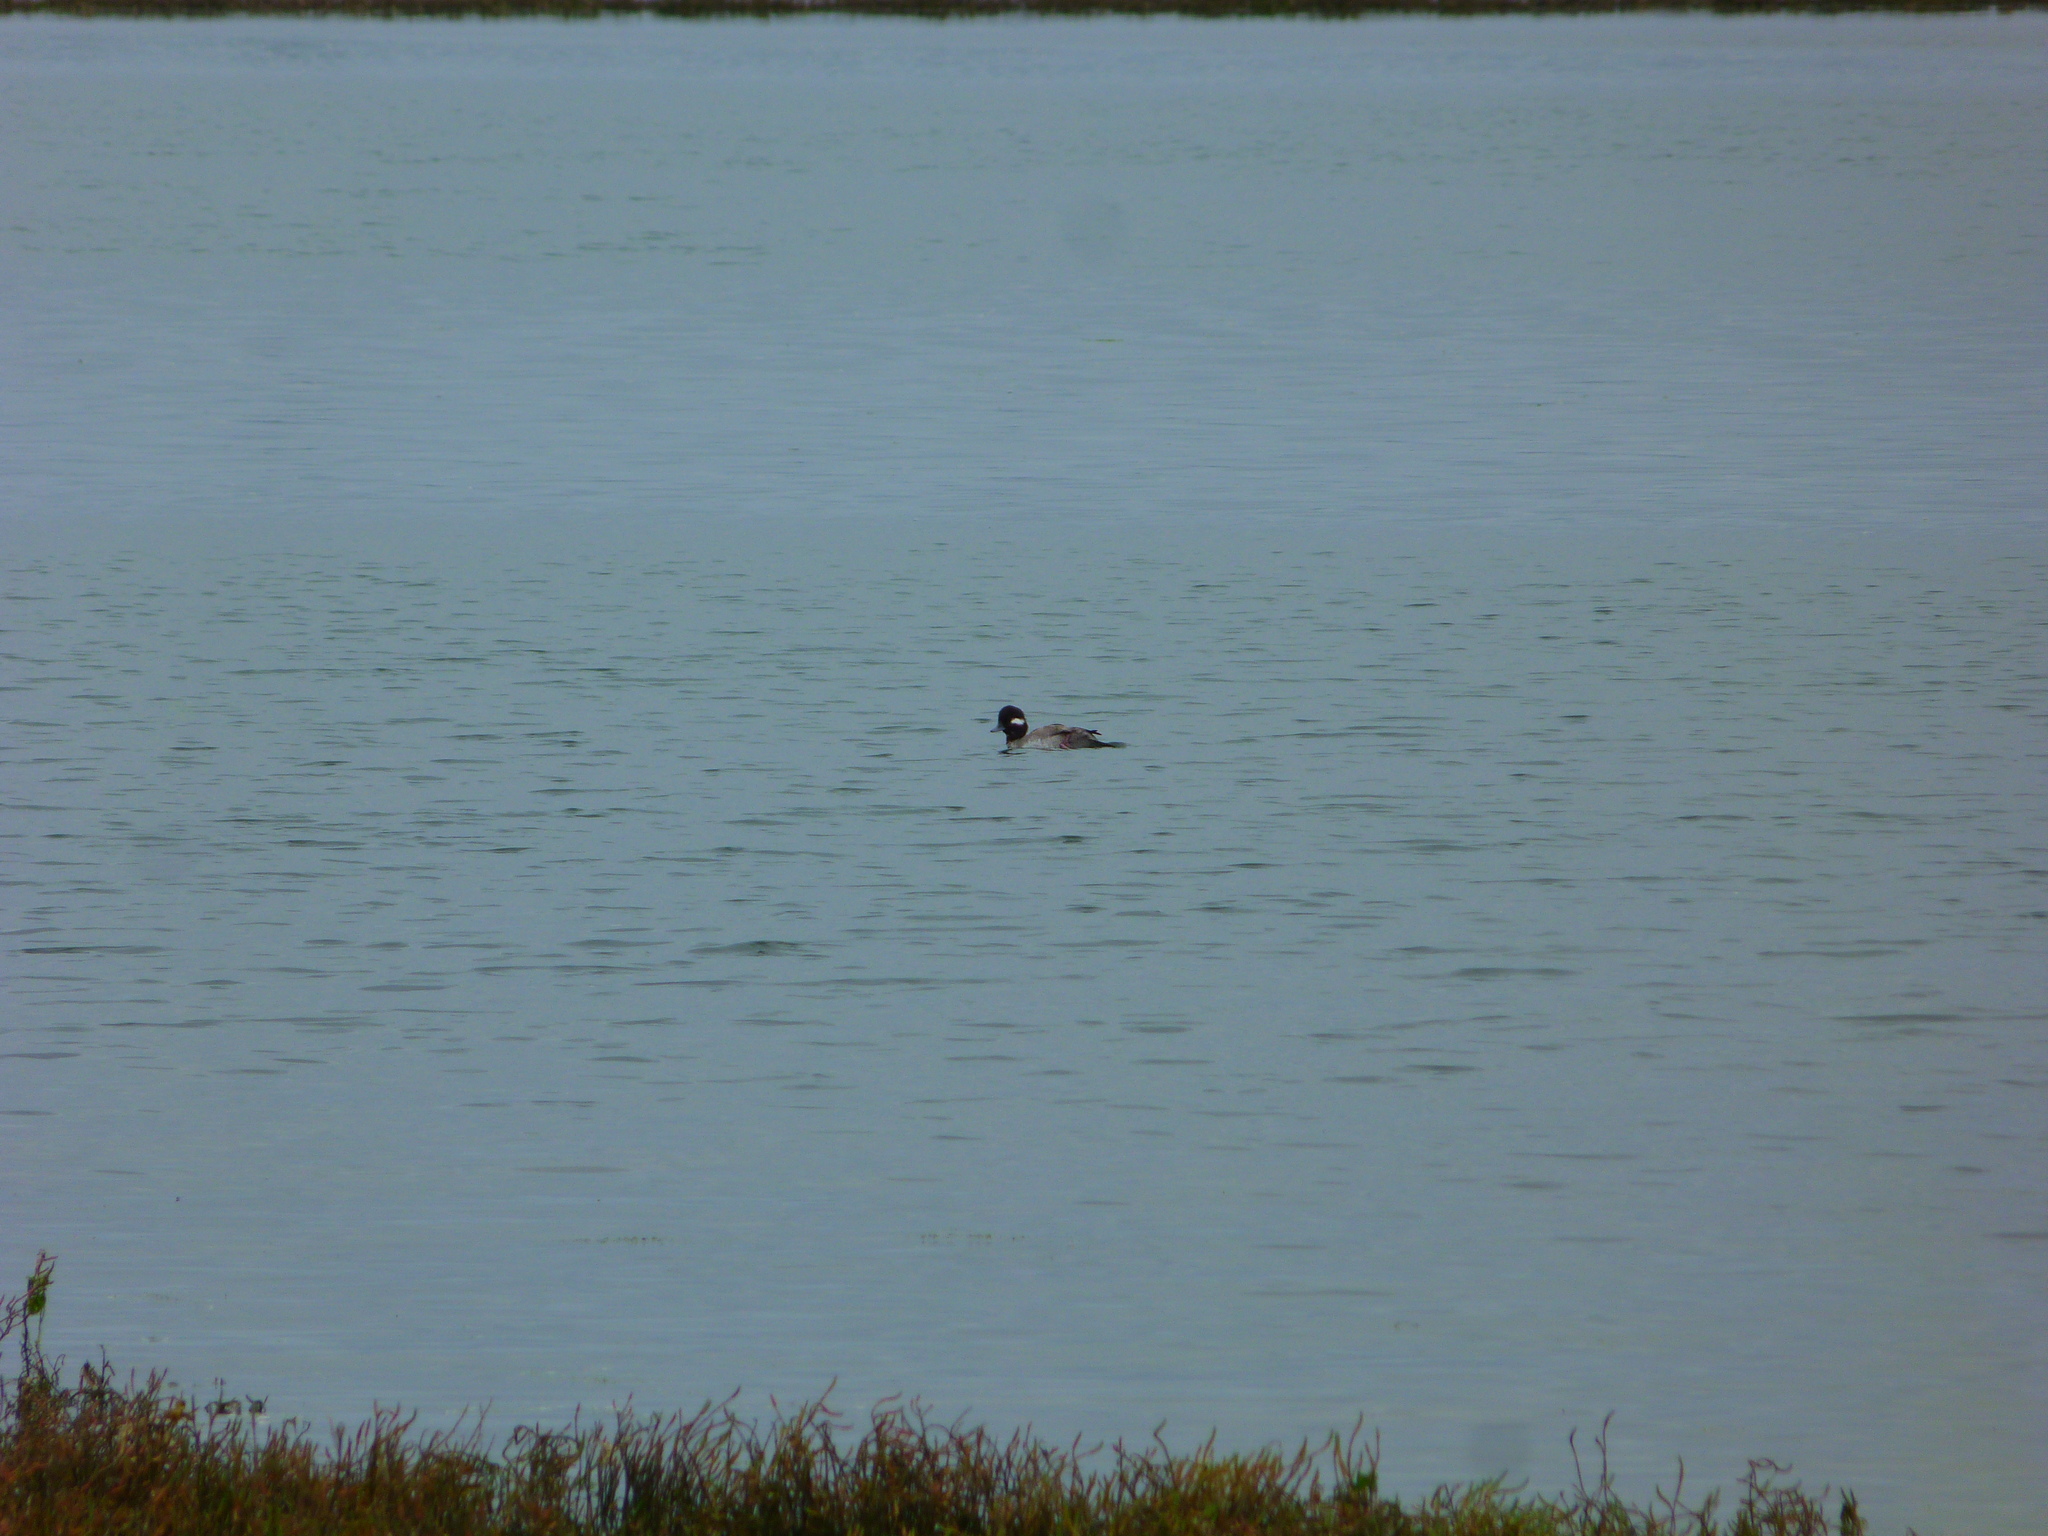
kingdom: Animalia
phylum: Chordata
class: Aves
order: Anseriformes
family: Anatidae
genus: Bucephala
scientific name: Bucephala albeola
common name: Bufflehead
